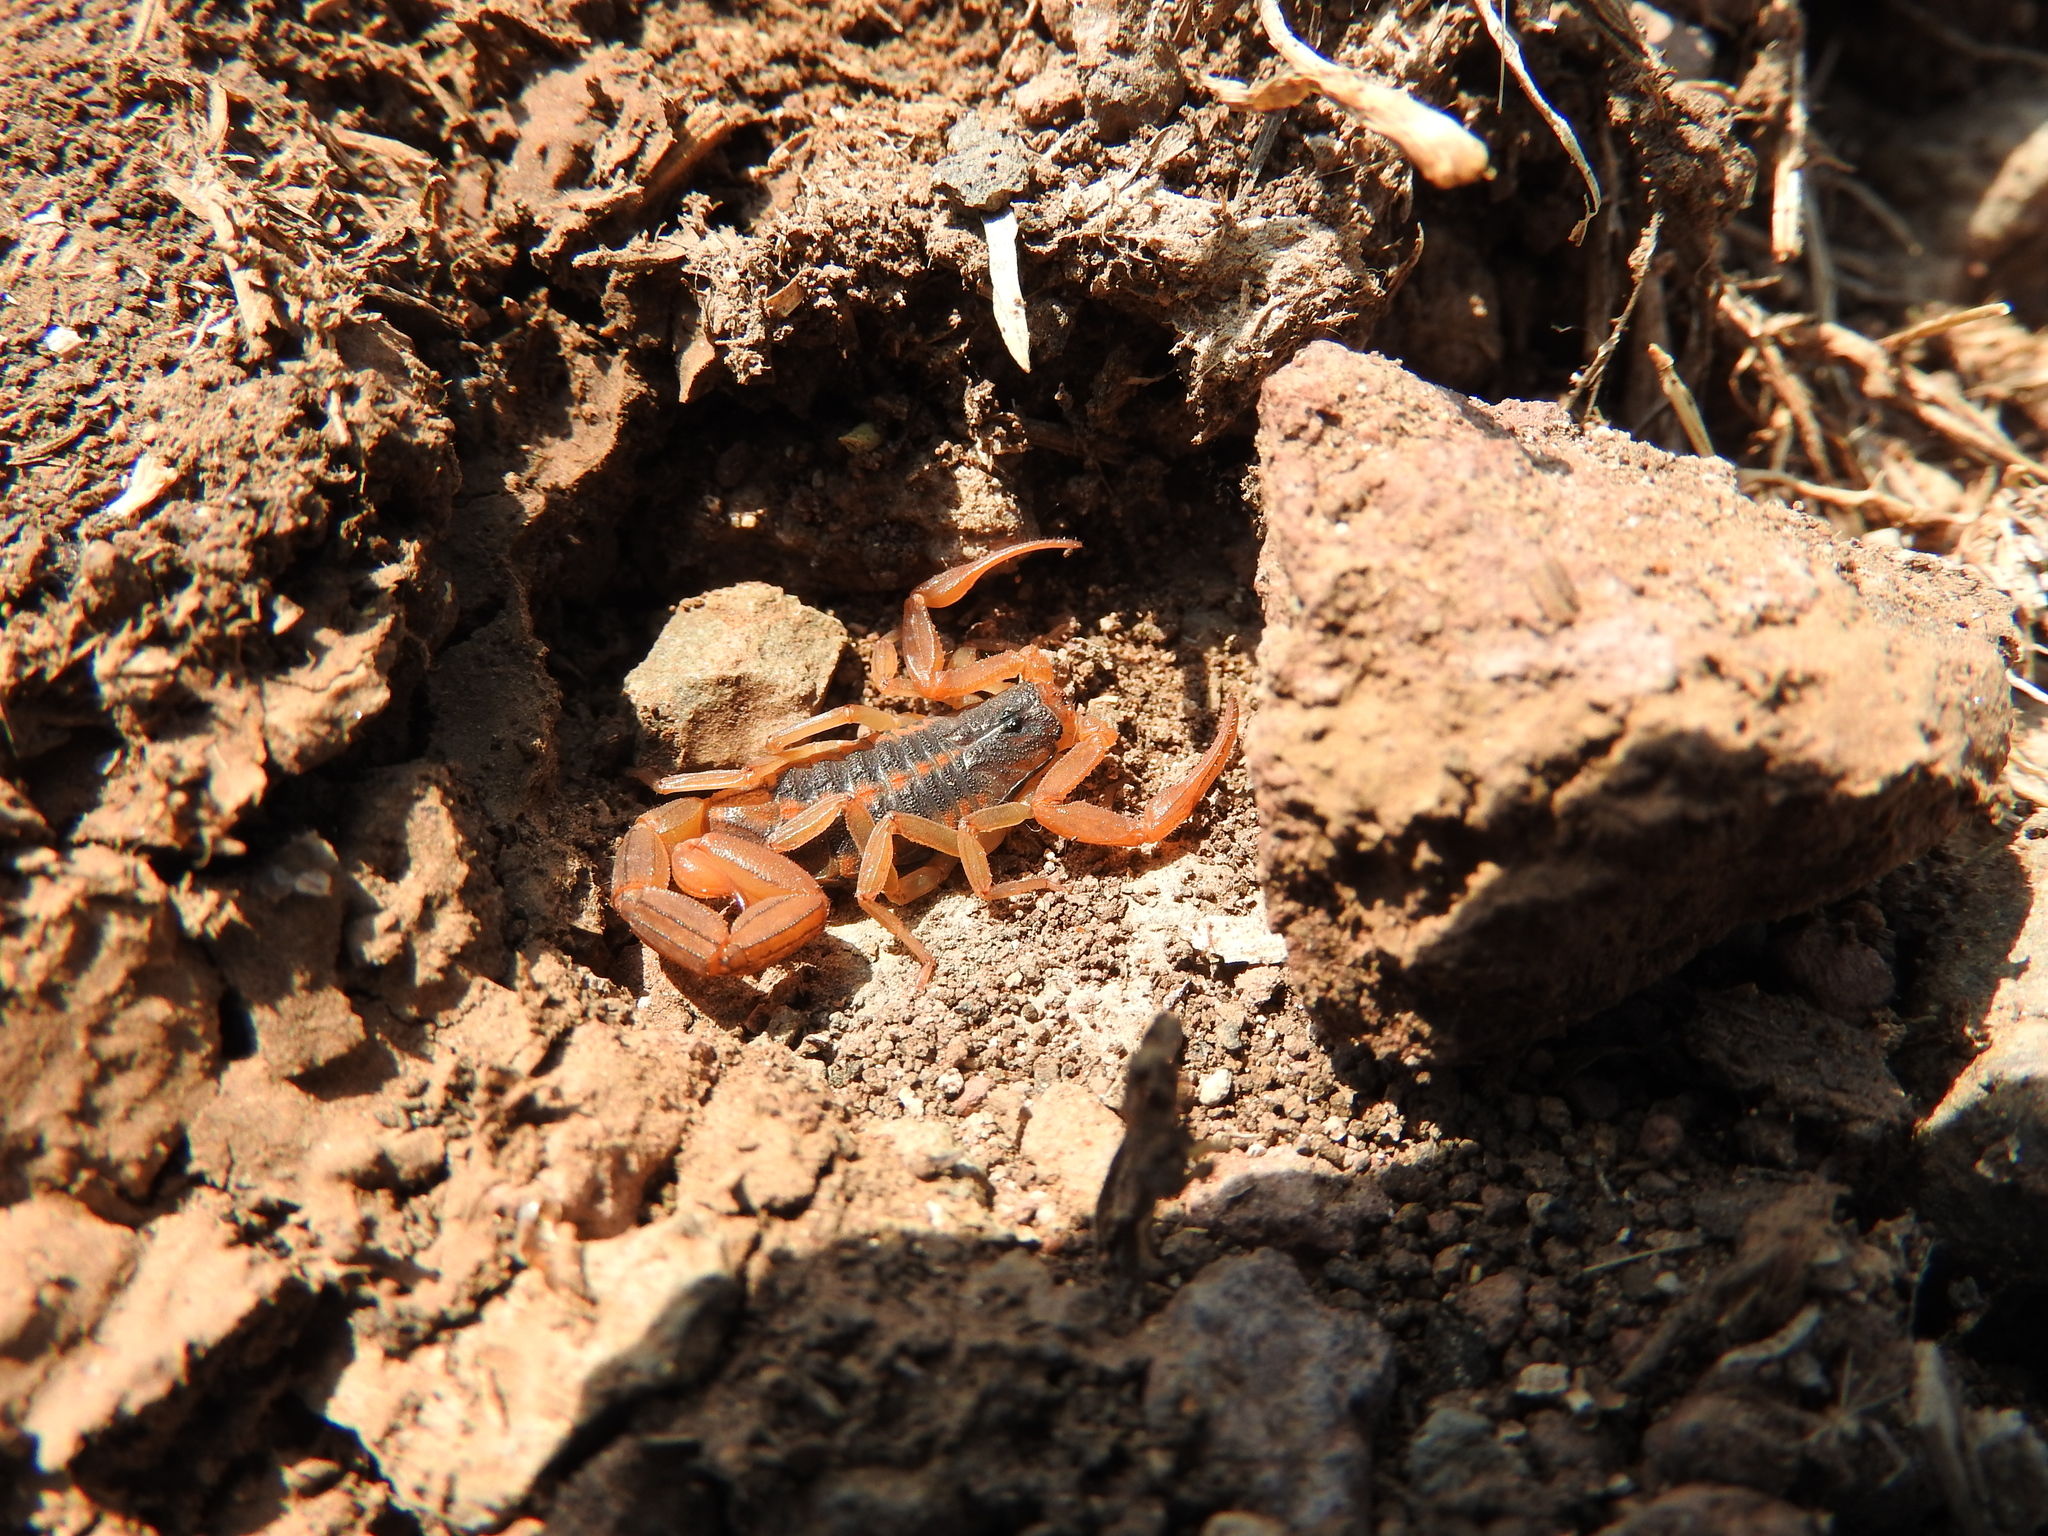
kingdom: Animalia
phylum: Arthropoda
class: Arachnida
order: Scorpiones
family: Buthidae
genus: Centruroides
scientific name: Centruroides ornatus
